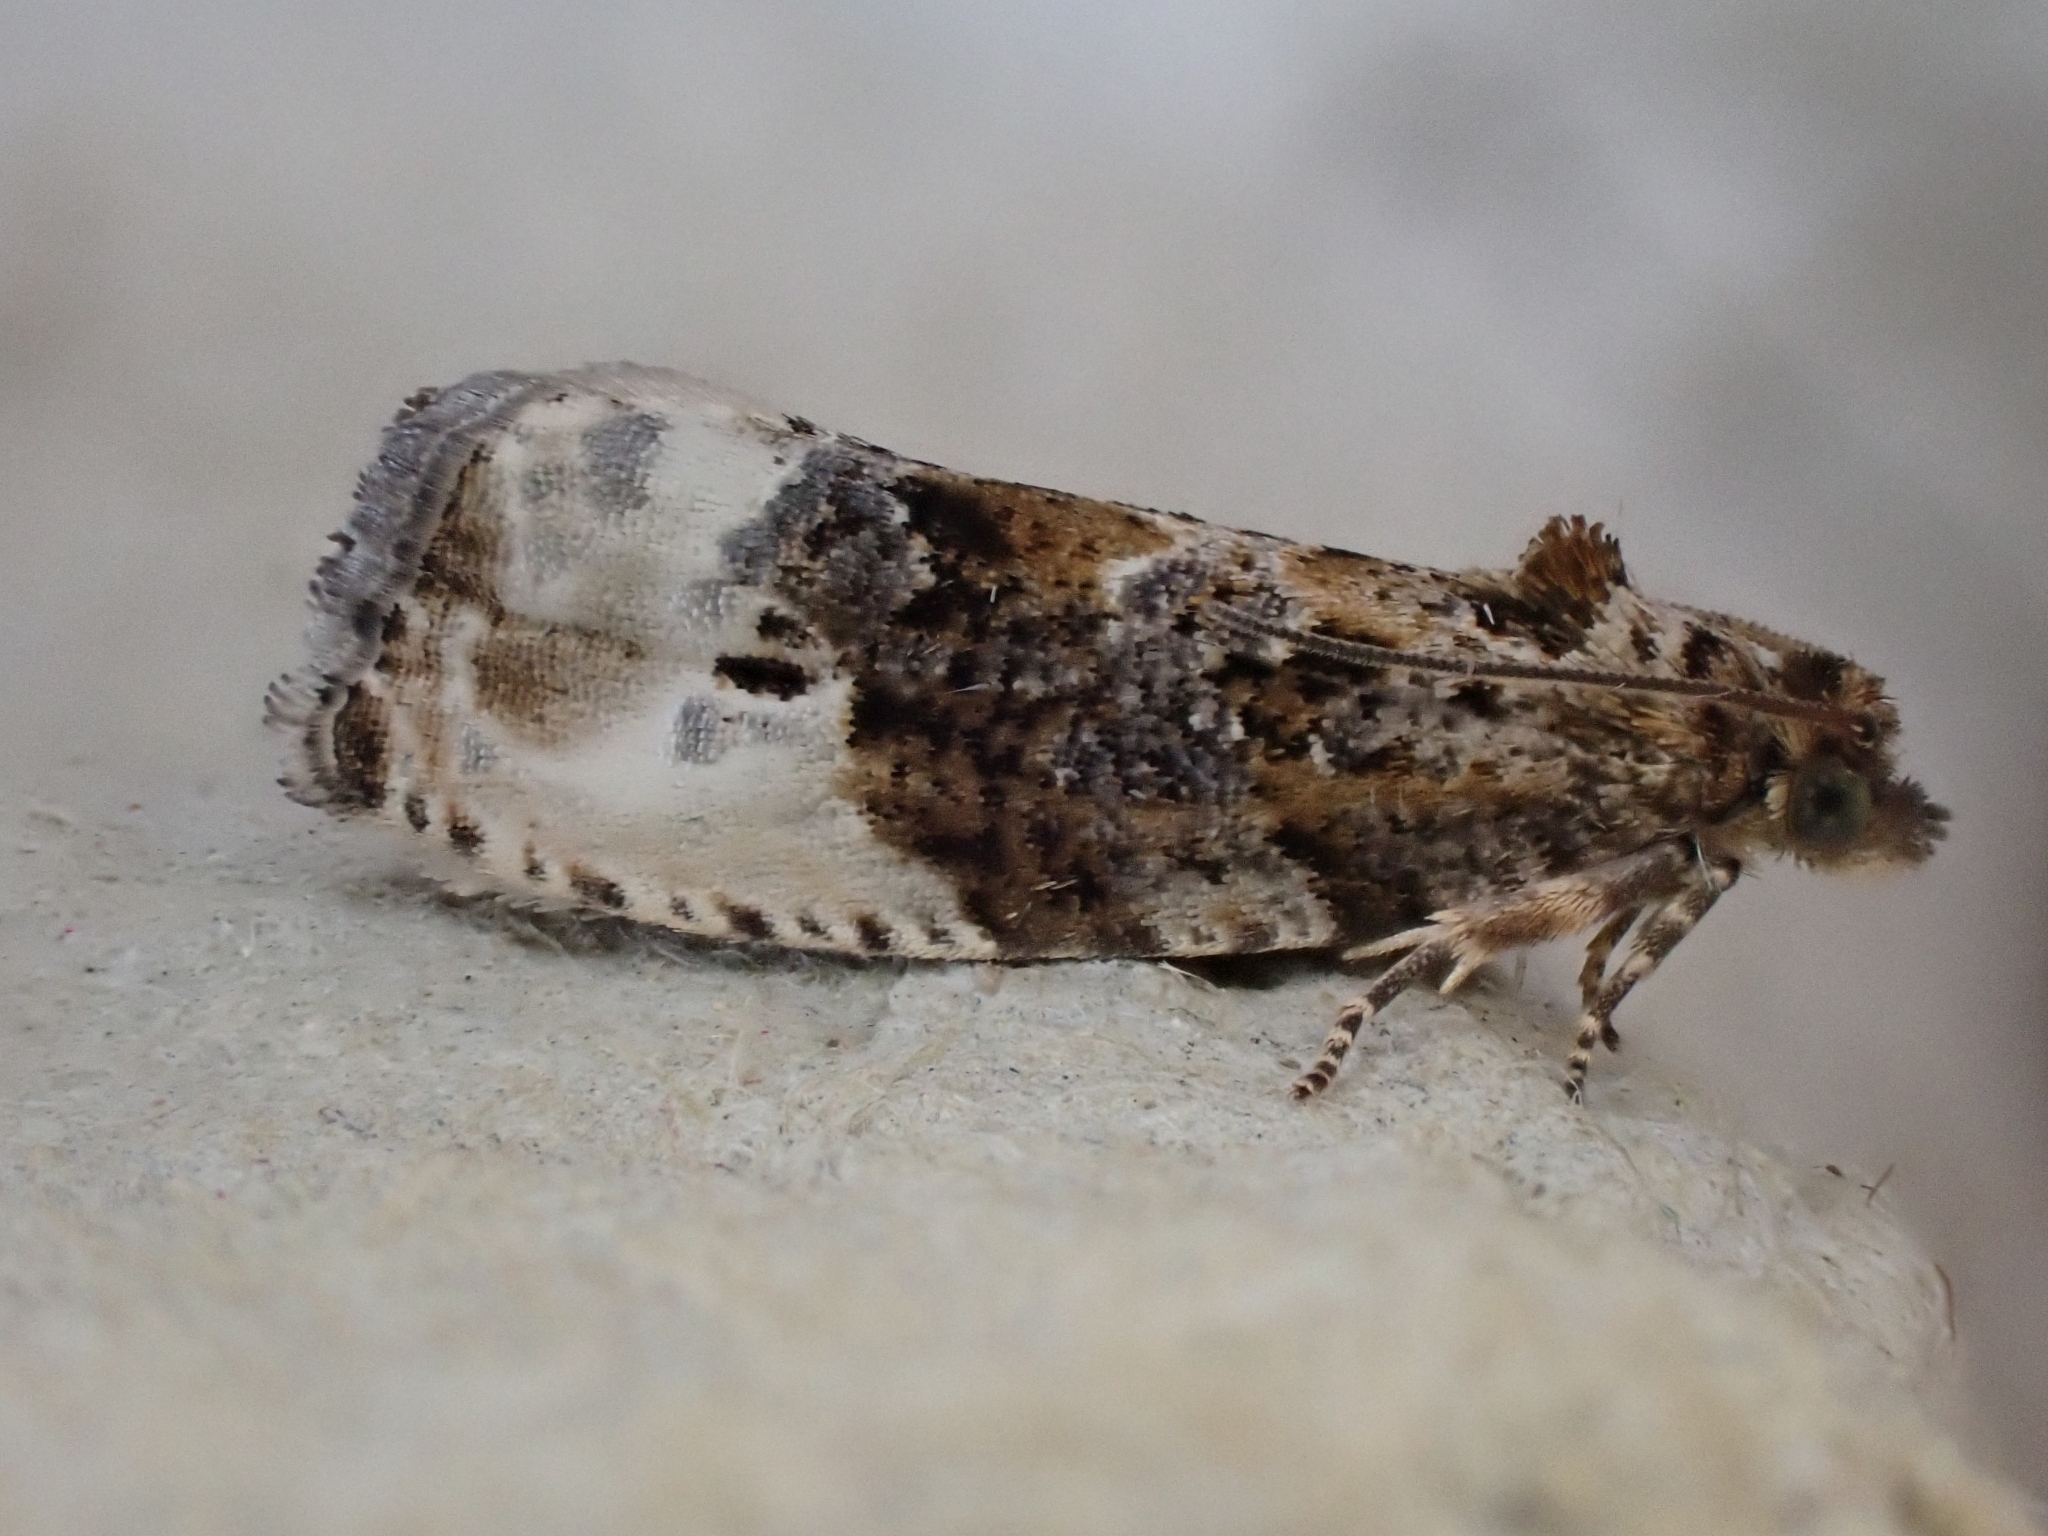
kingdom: Animalia
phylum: Arthropoda
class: Insecta
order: Lepidoptera
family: Tortricidae
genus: Hedya
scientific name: Hedya nubiferana
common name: Marbled orchard tortrix
